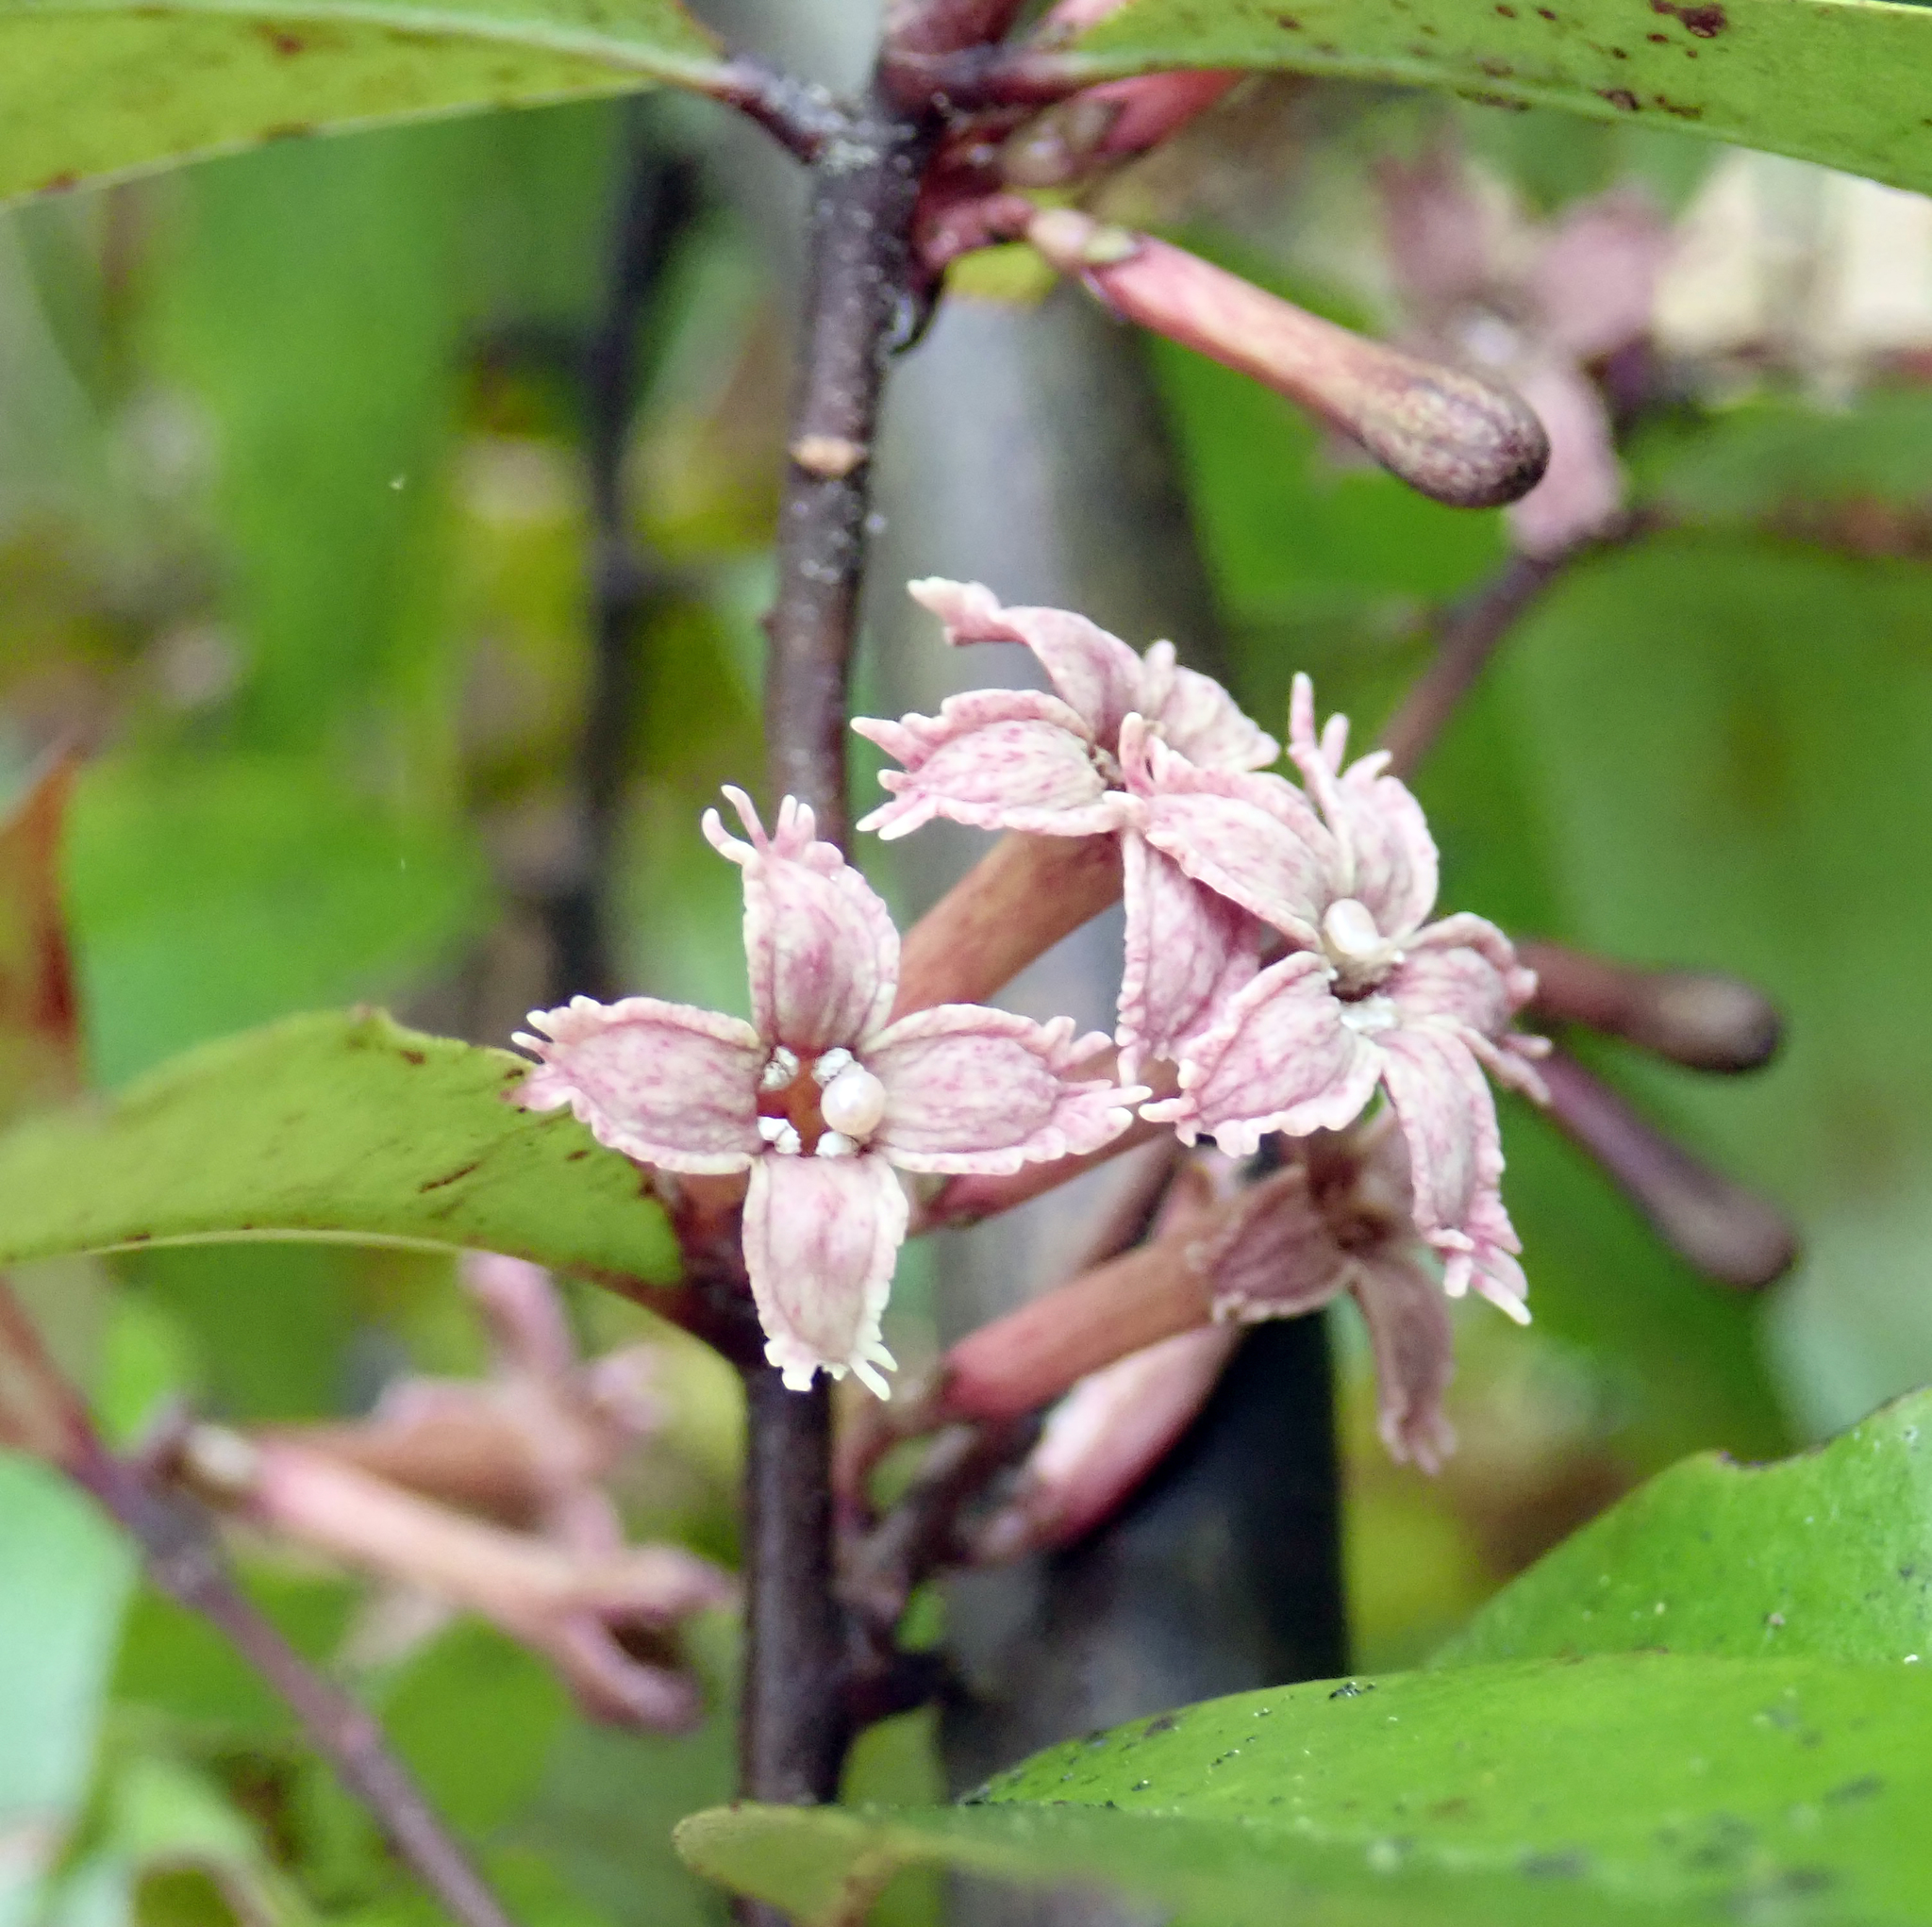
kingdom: Plantae
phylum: Tracheophyta
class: Magnoliopsida
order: Asterales
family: Alseuosmiaceae
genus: Alseuosmia
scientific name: Alseuosmia quercifolia
